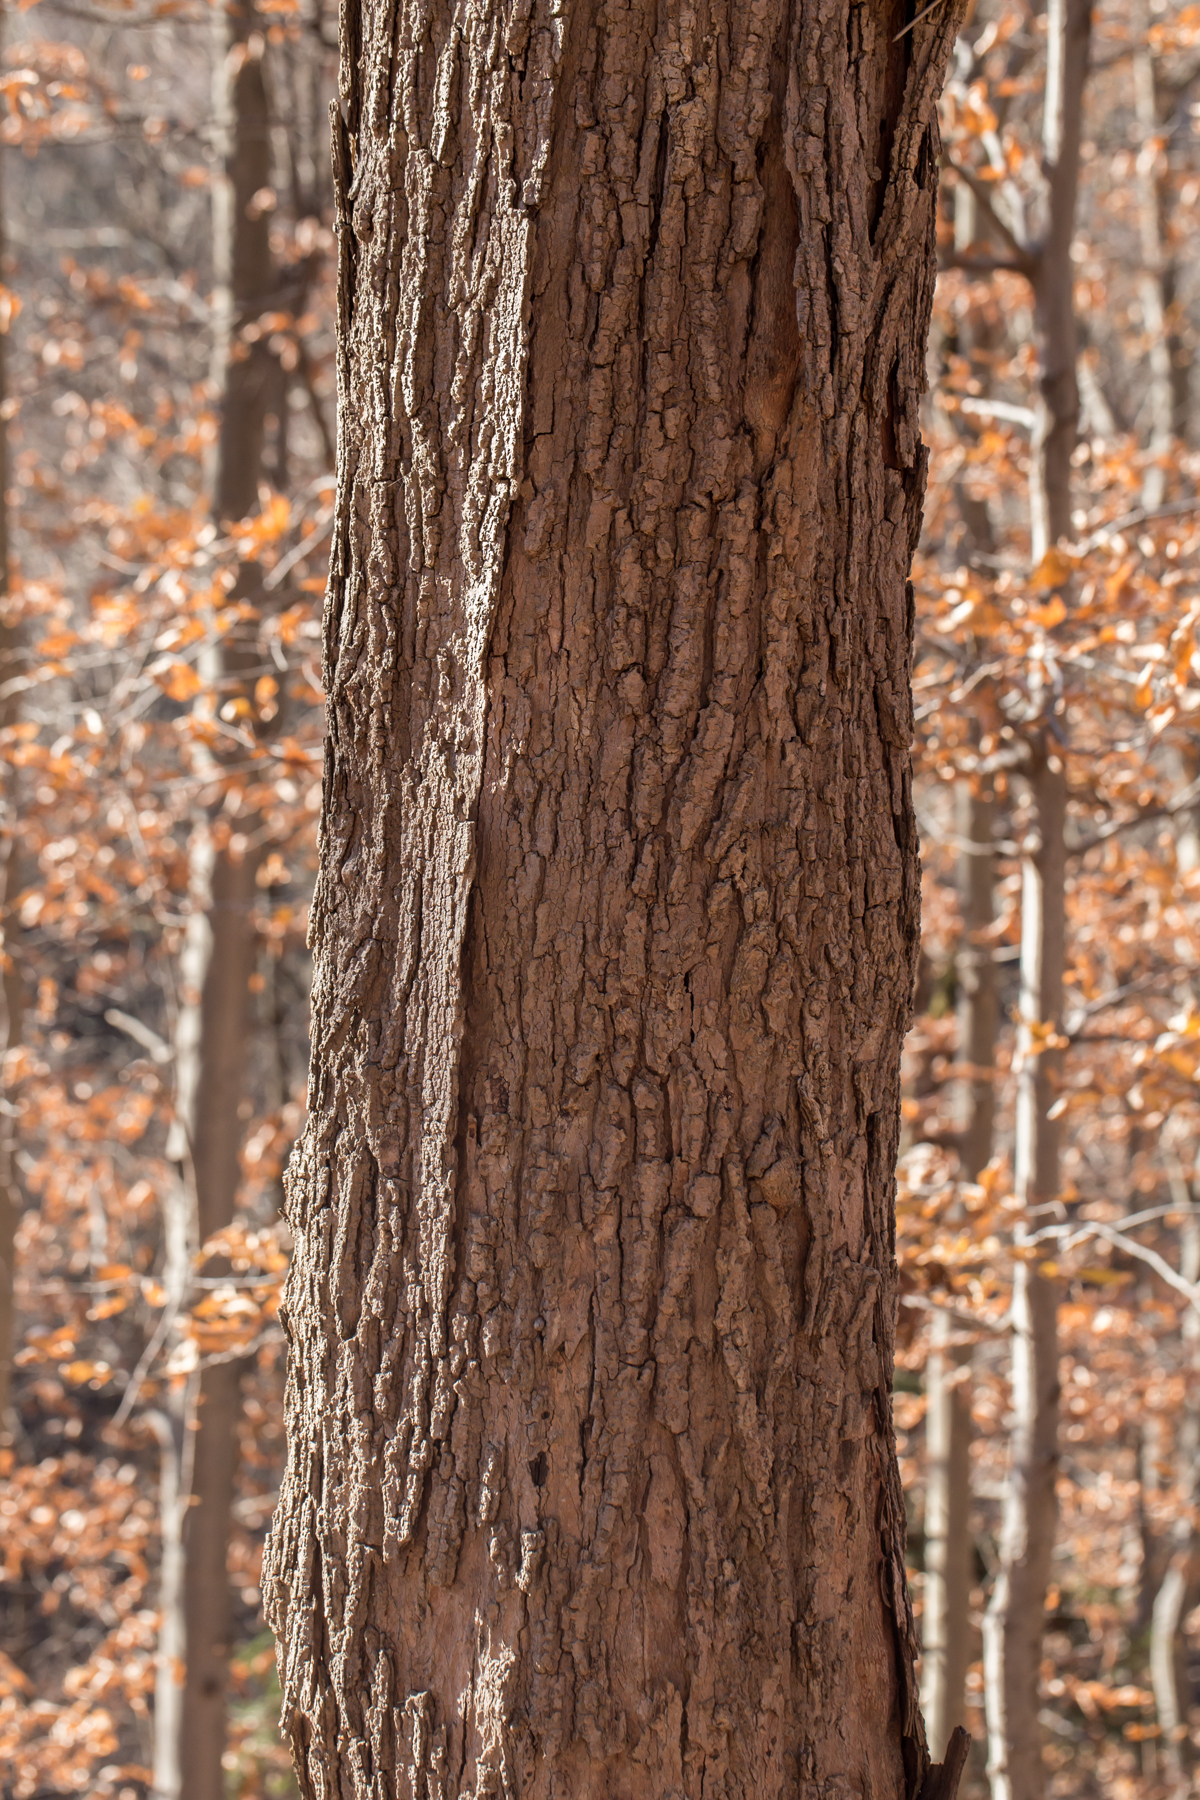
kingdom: Plantae
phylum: Tracheophyta
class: Magnoliopsida
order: Sapindales
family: Sapindaceae
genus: Acer
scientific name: Acer saccharum
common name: Sugar maple
